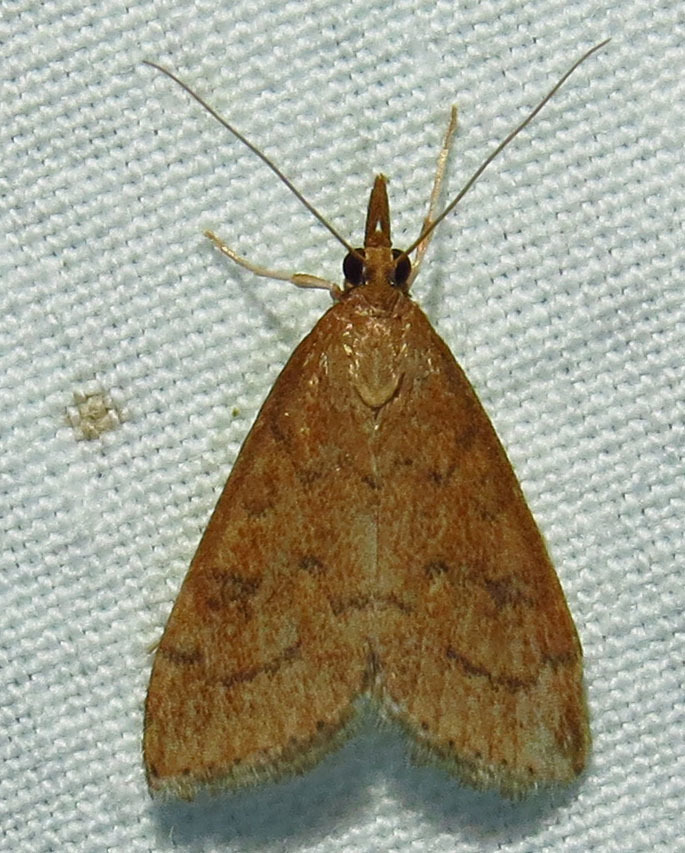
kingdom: Animalia
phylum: Arthropoda
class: Insecta
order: Lepidoptera
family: Crambidae
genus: Udea
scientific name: Udea rubigalis
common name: Celery leaftier moth
